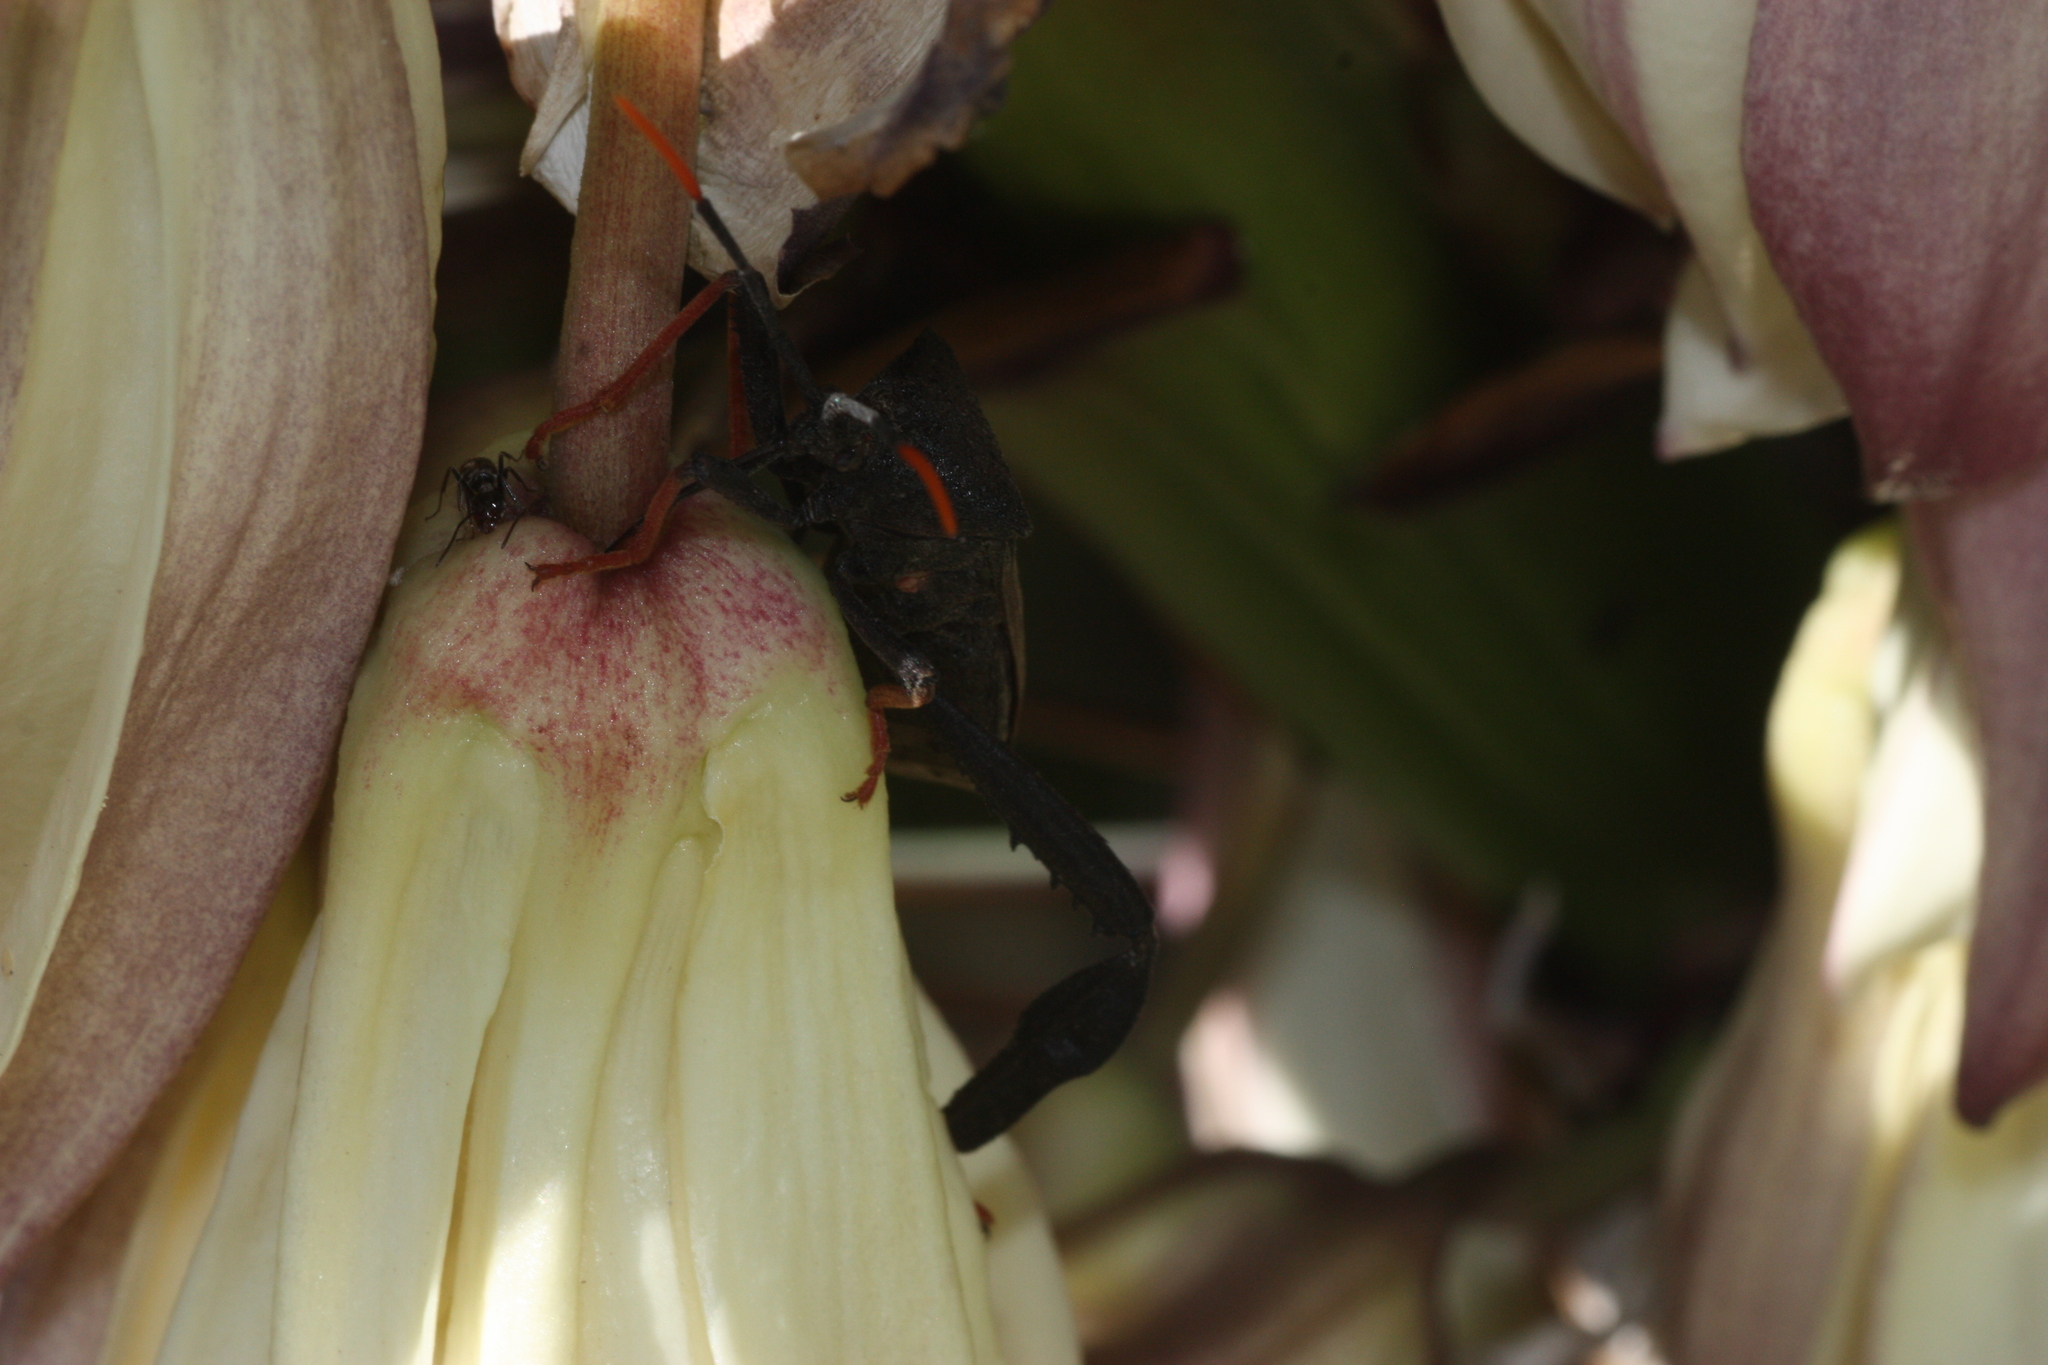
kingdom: Animalia
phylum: Arthropoda
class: Insecta
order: Hemiptera
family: Coreidae
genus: Acanthocephala
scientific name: Acanthocephala thomasi
